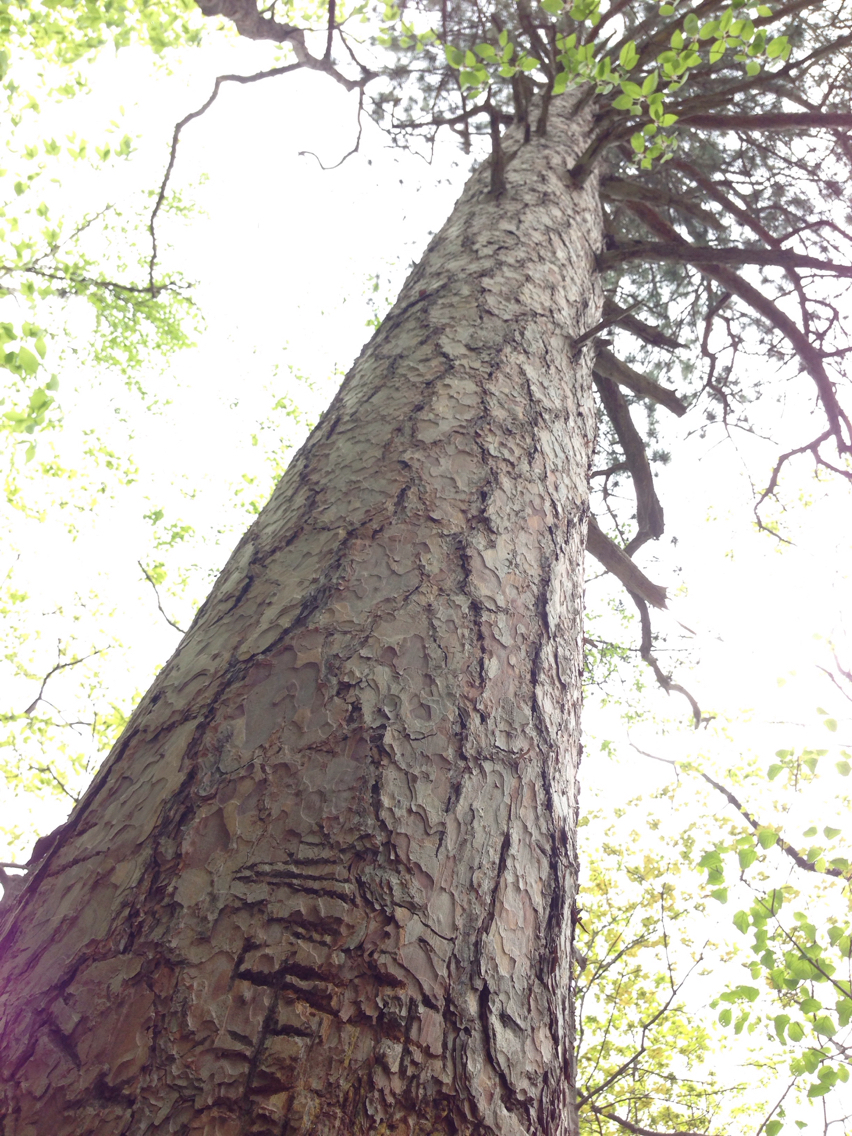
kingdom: Plantae
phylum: Tracheophyta
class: Pinopsida
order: Pinales
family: Pinaceae
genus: Pinus
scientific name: Pinus resinosa
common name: Norway pine
